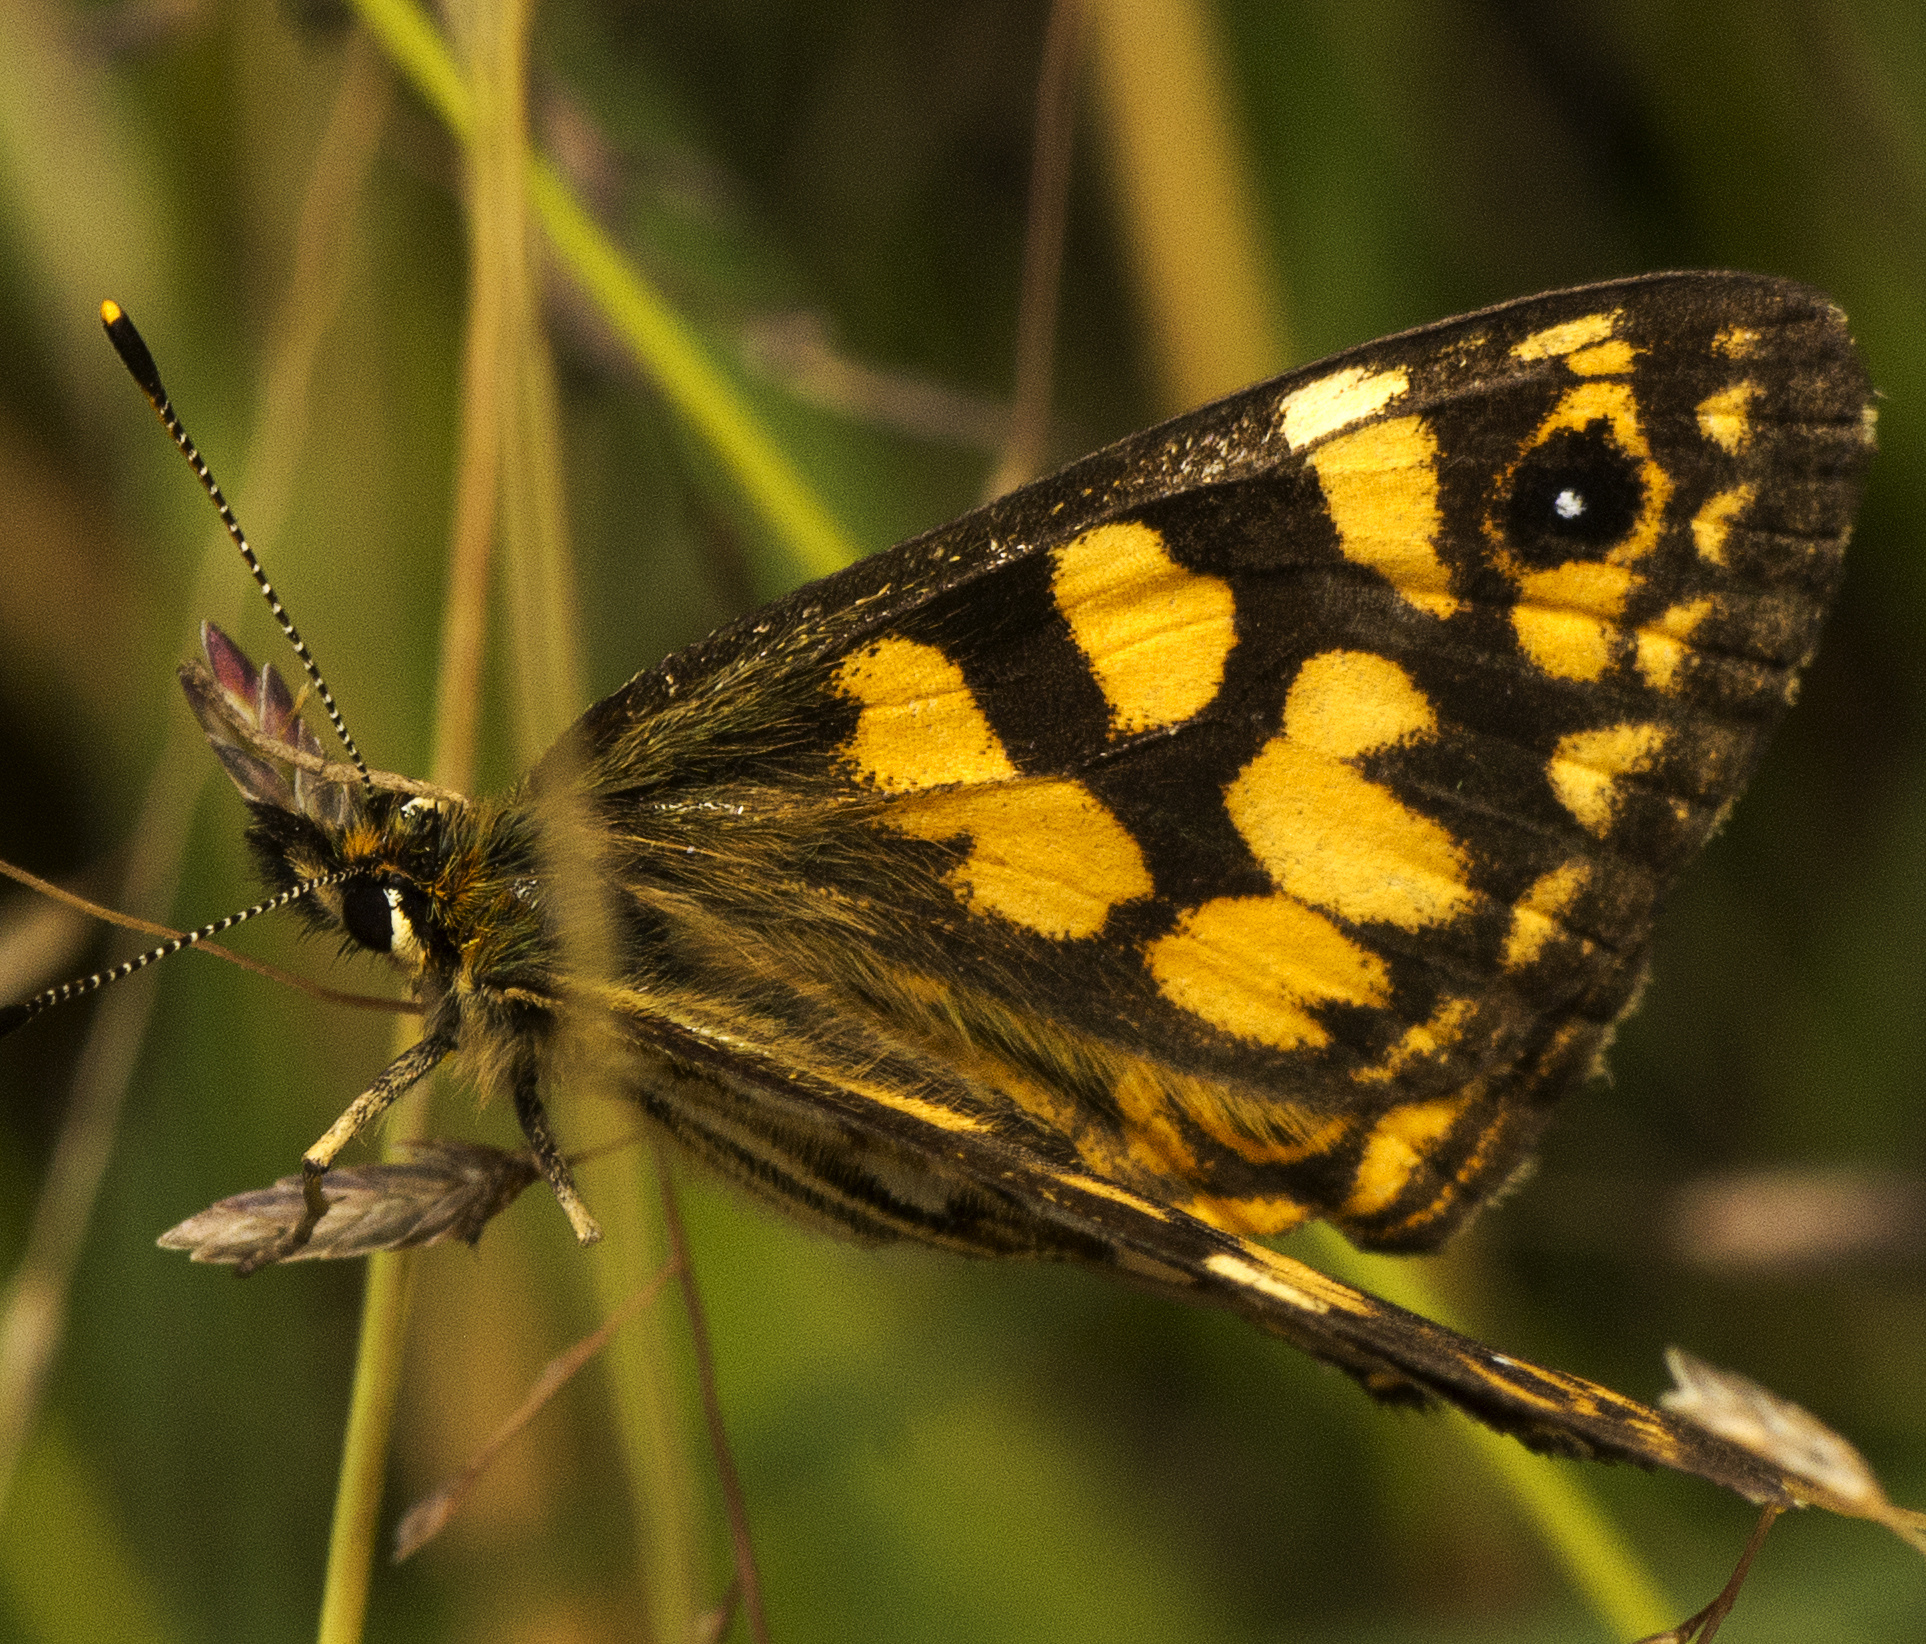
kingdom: Animalia
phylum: Arthropoda
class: Insecta
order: Lepidoptera
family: Nymphalidae
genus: Oreixenica
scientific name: Oreixenica lathoniella
